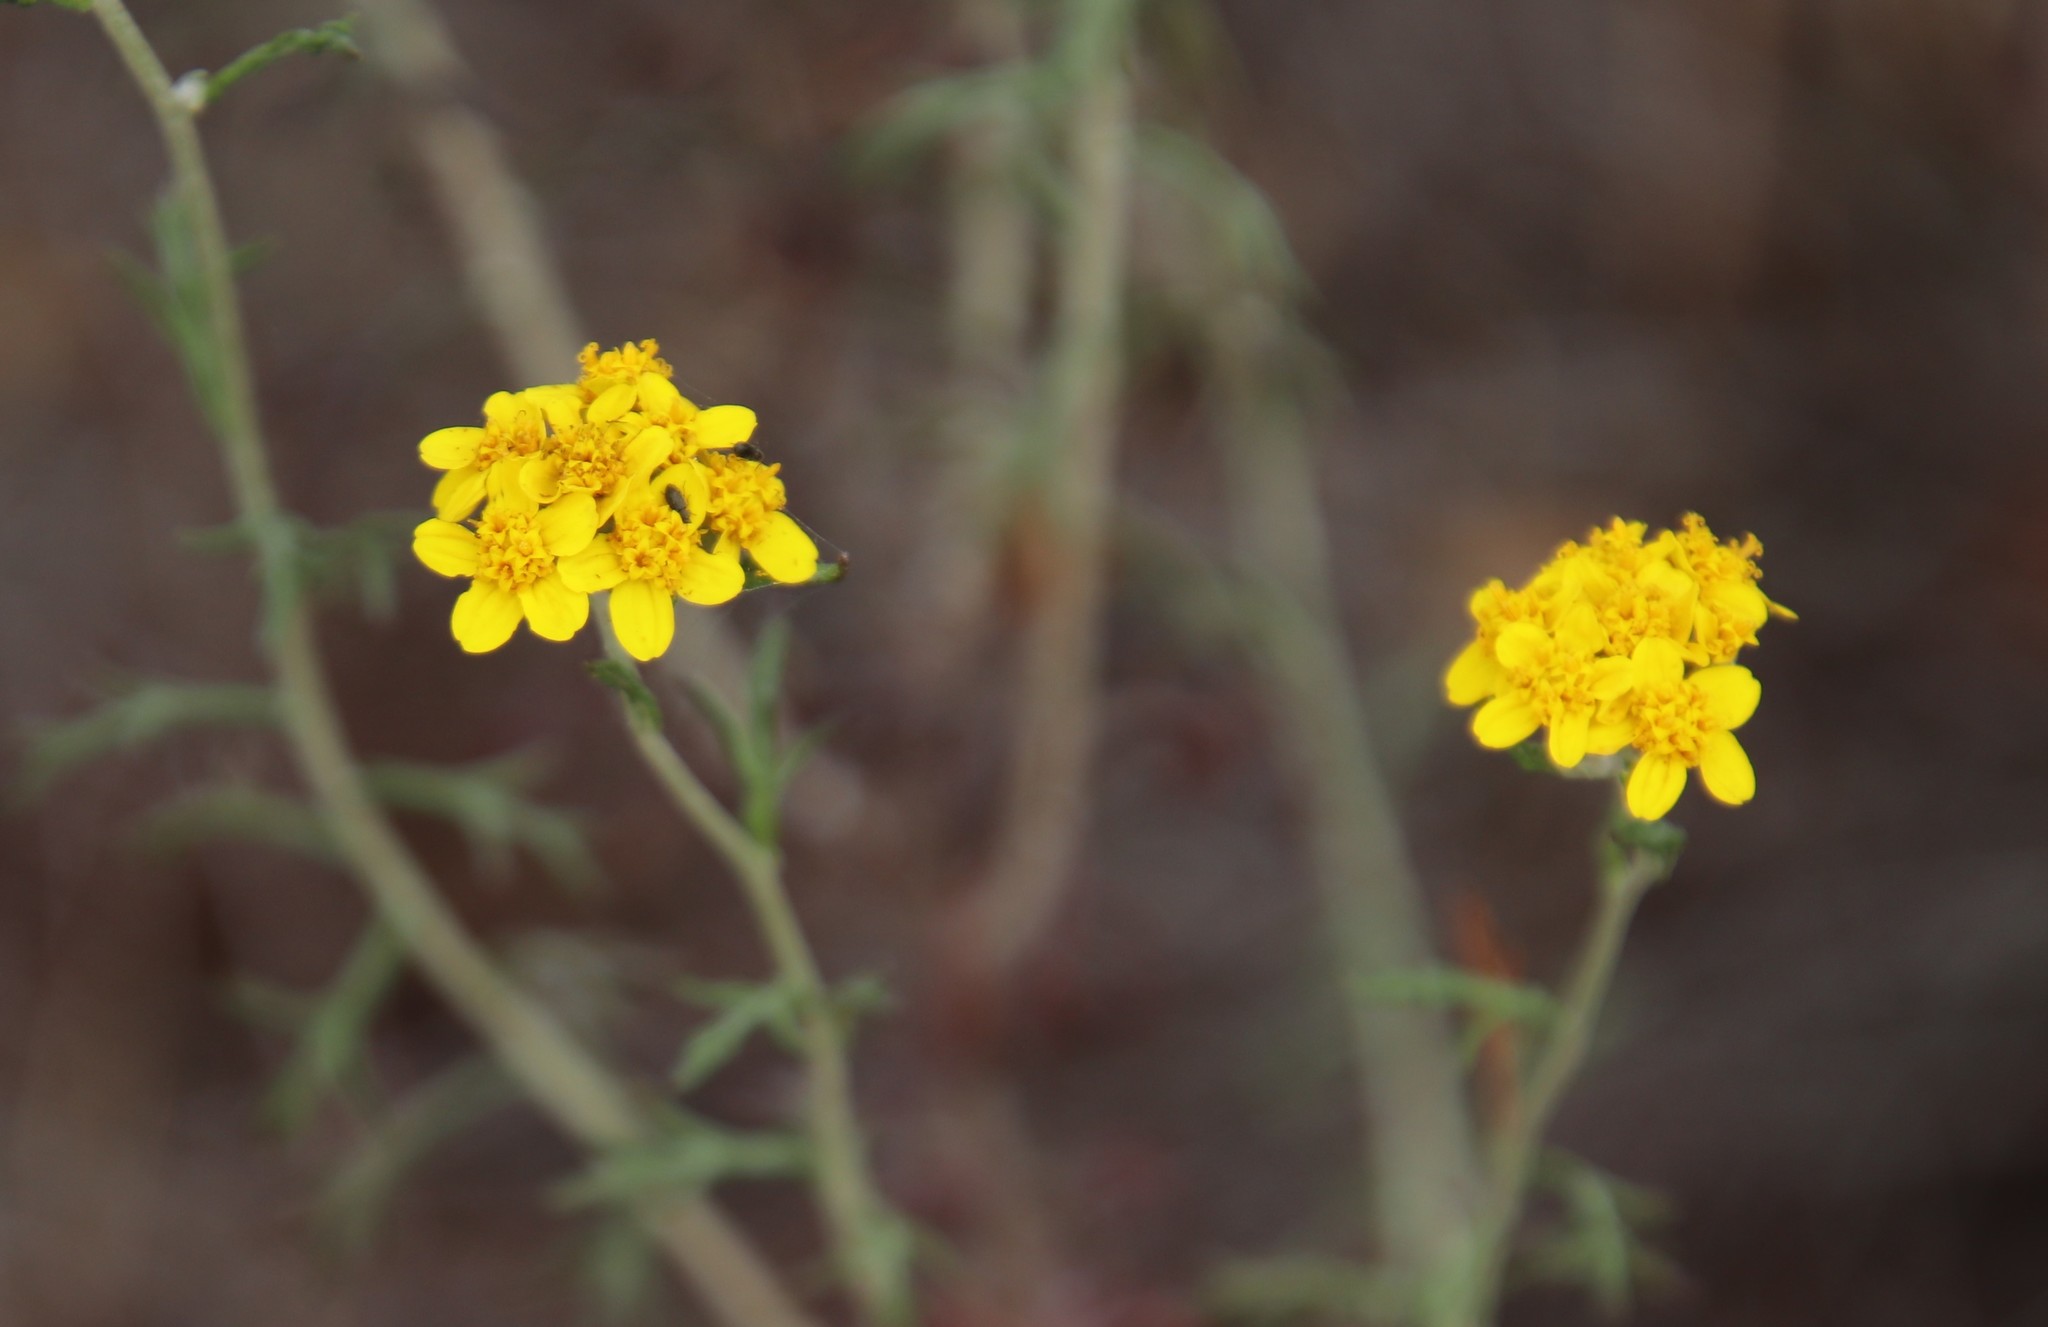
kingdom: Plantae
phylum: Tracheophyta
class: Magnoliopsida
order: Asterales
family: Asteraceae
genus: Eriophyllum
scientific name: Eriophyllum confertiflorum
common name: Golden-yarrow
